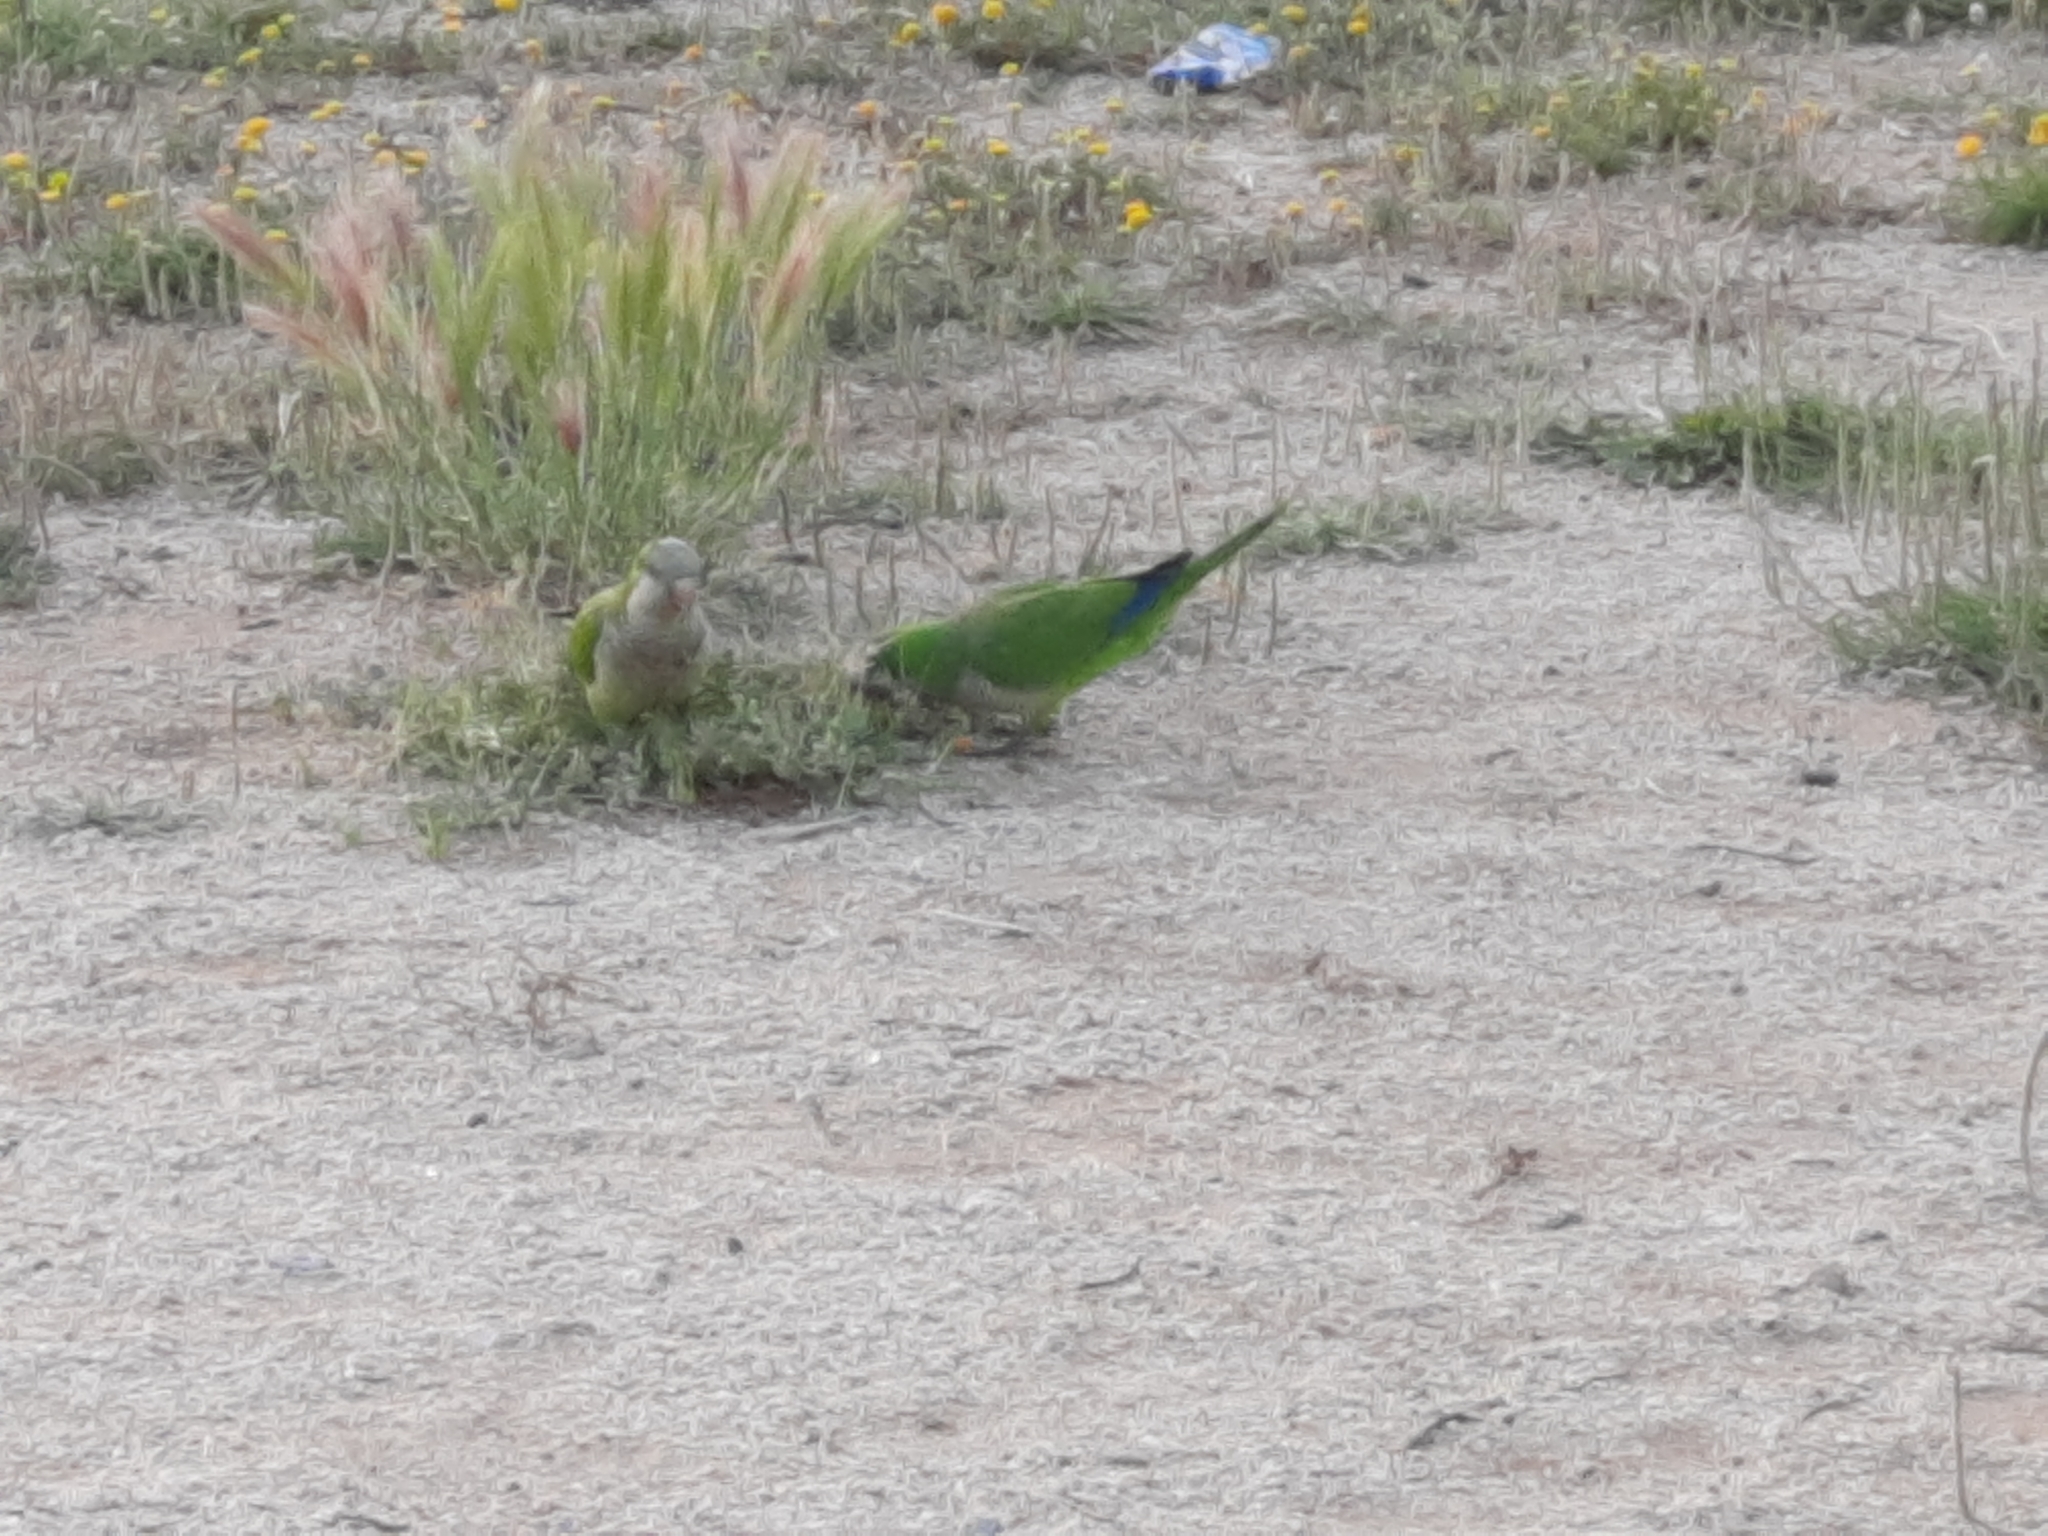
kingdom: Animalia
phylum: Chordata
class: Aves
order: Psittaciformes
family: Psittacidae
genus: Myiopsitta
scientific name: Myiopsitta monachus
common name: Monk parakeet
